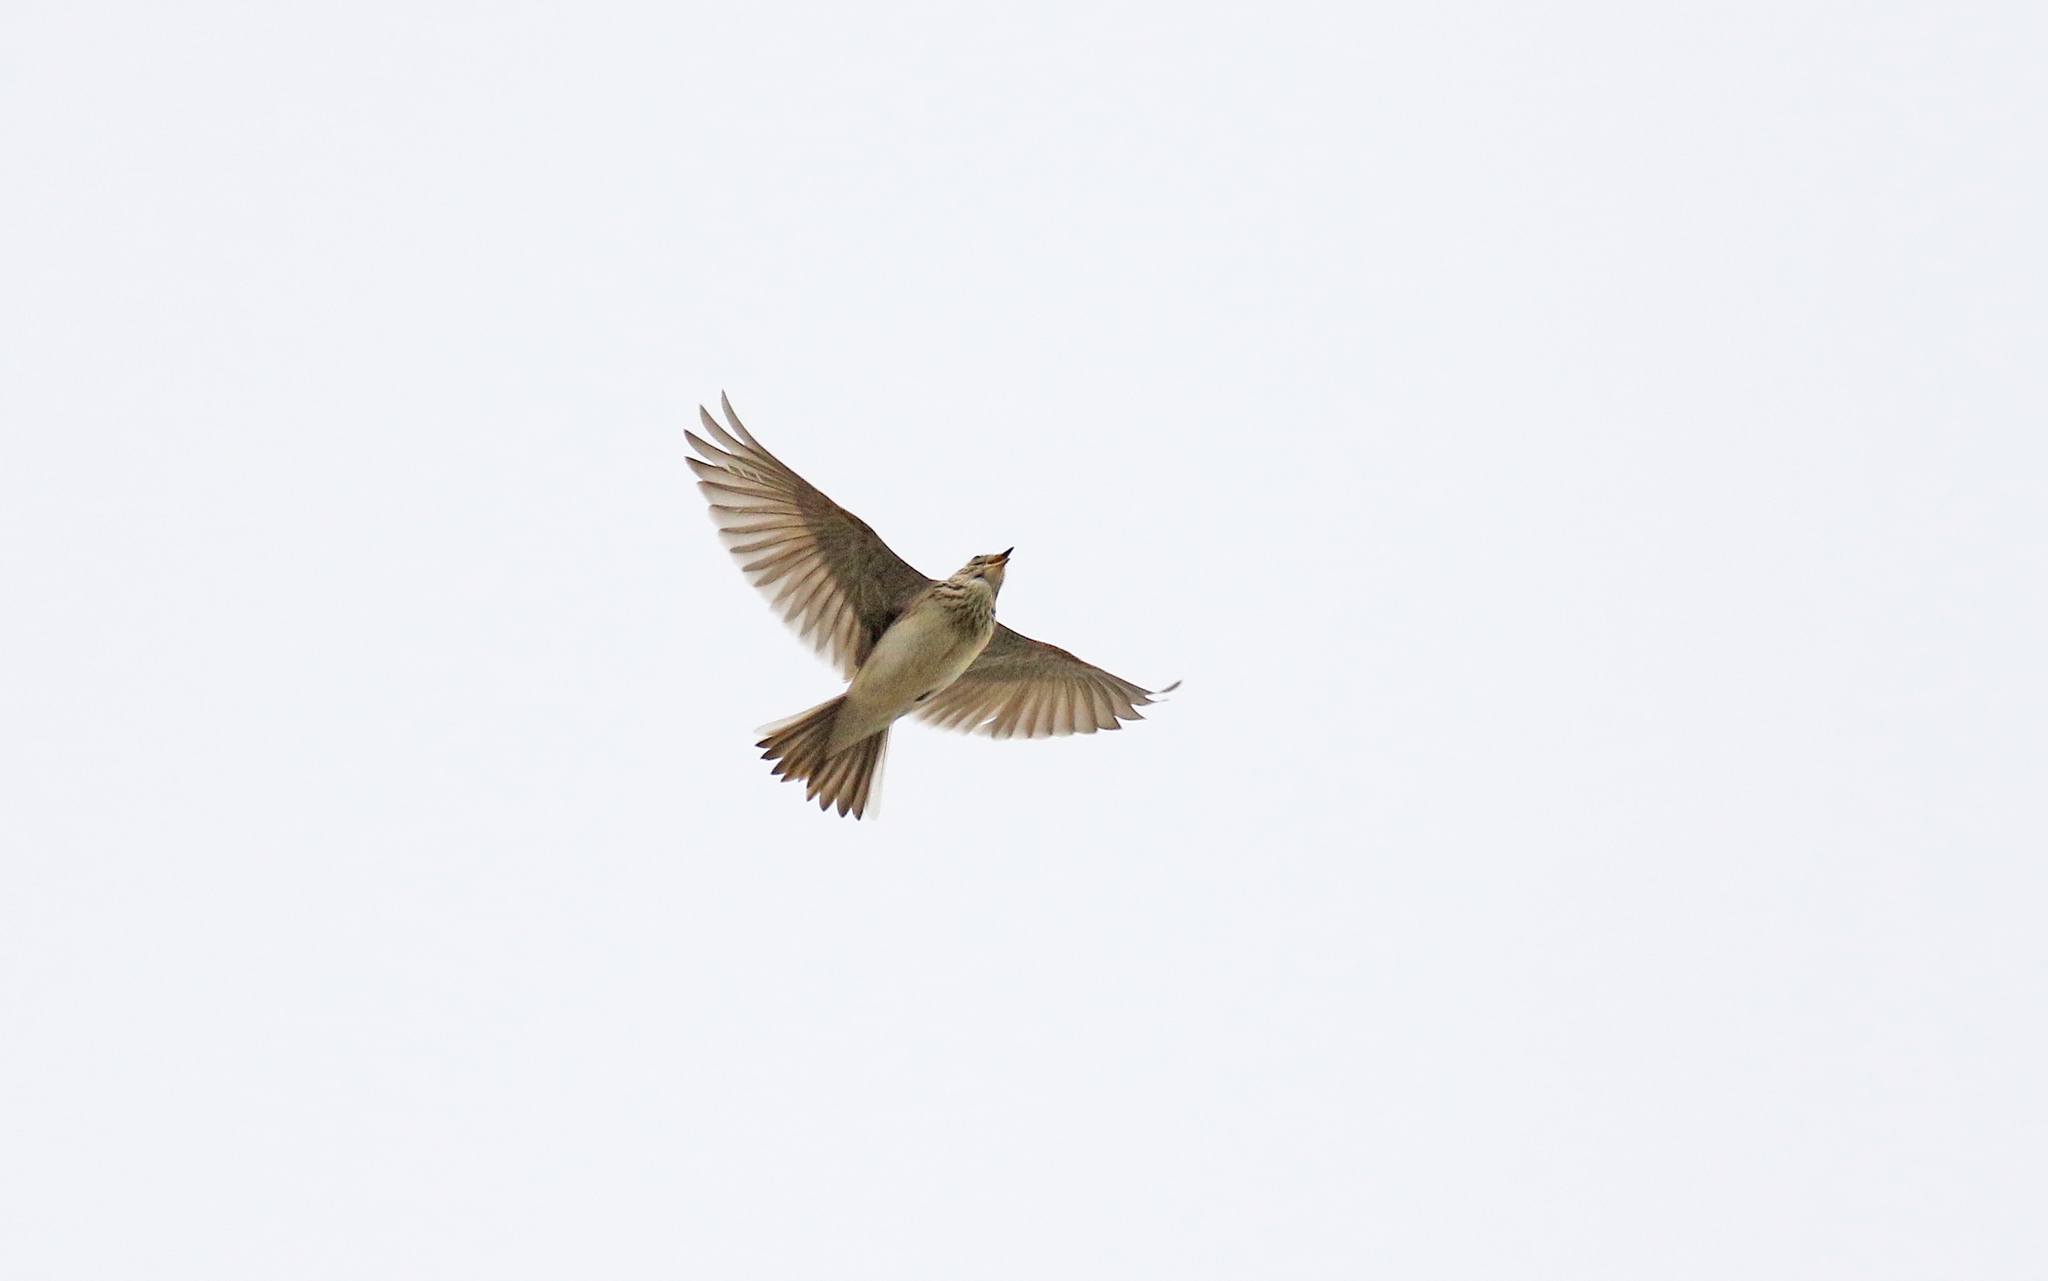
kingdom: Animalia
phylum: Chordata
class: Aves
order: Passeriformes
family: Alaudidae
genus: Alauda
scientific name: Alauda arvensis
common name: Eurasian skylark
